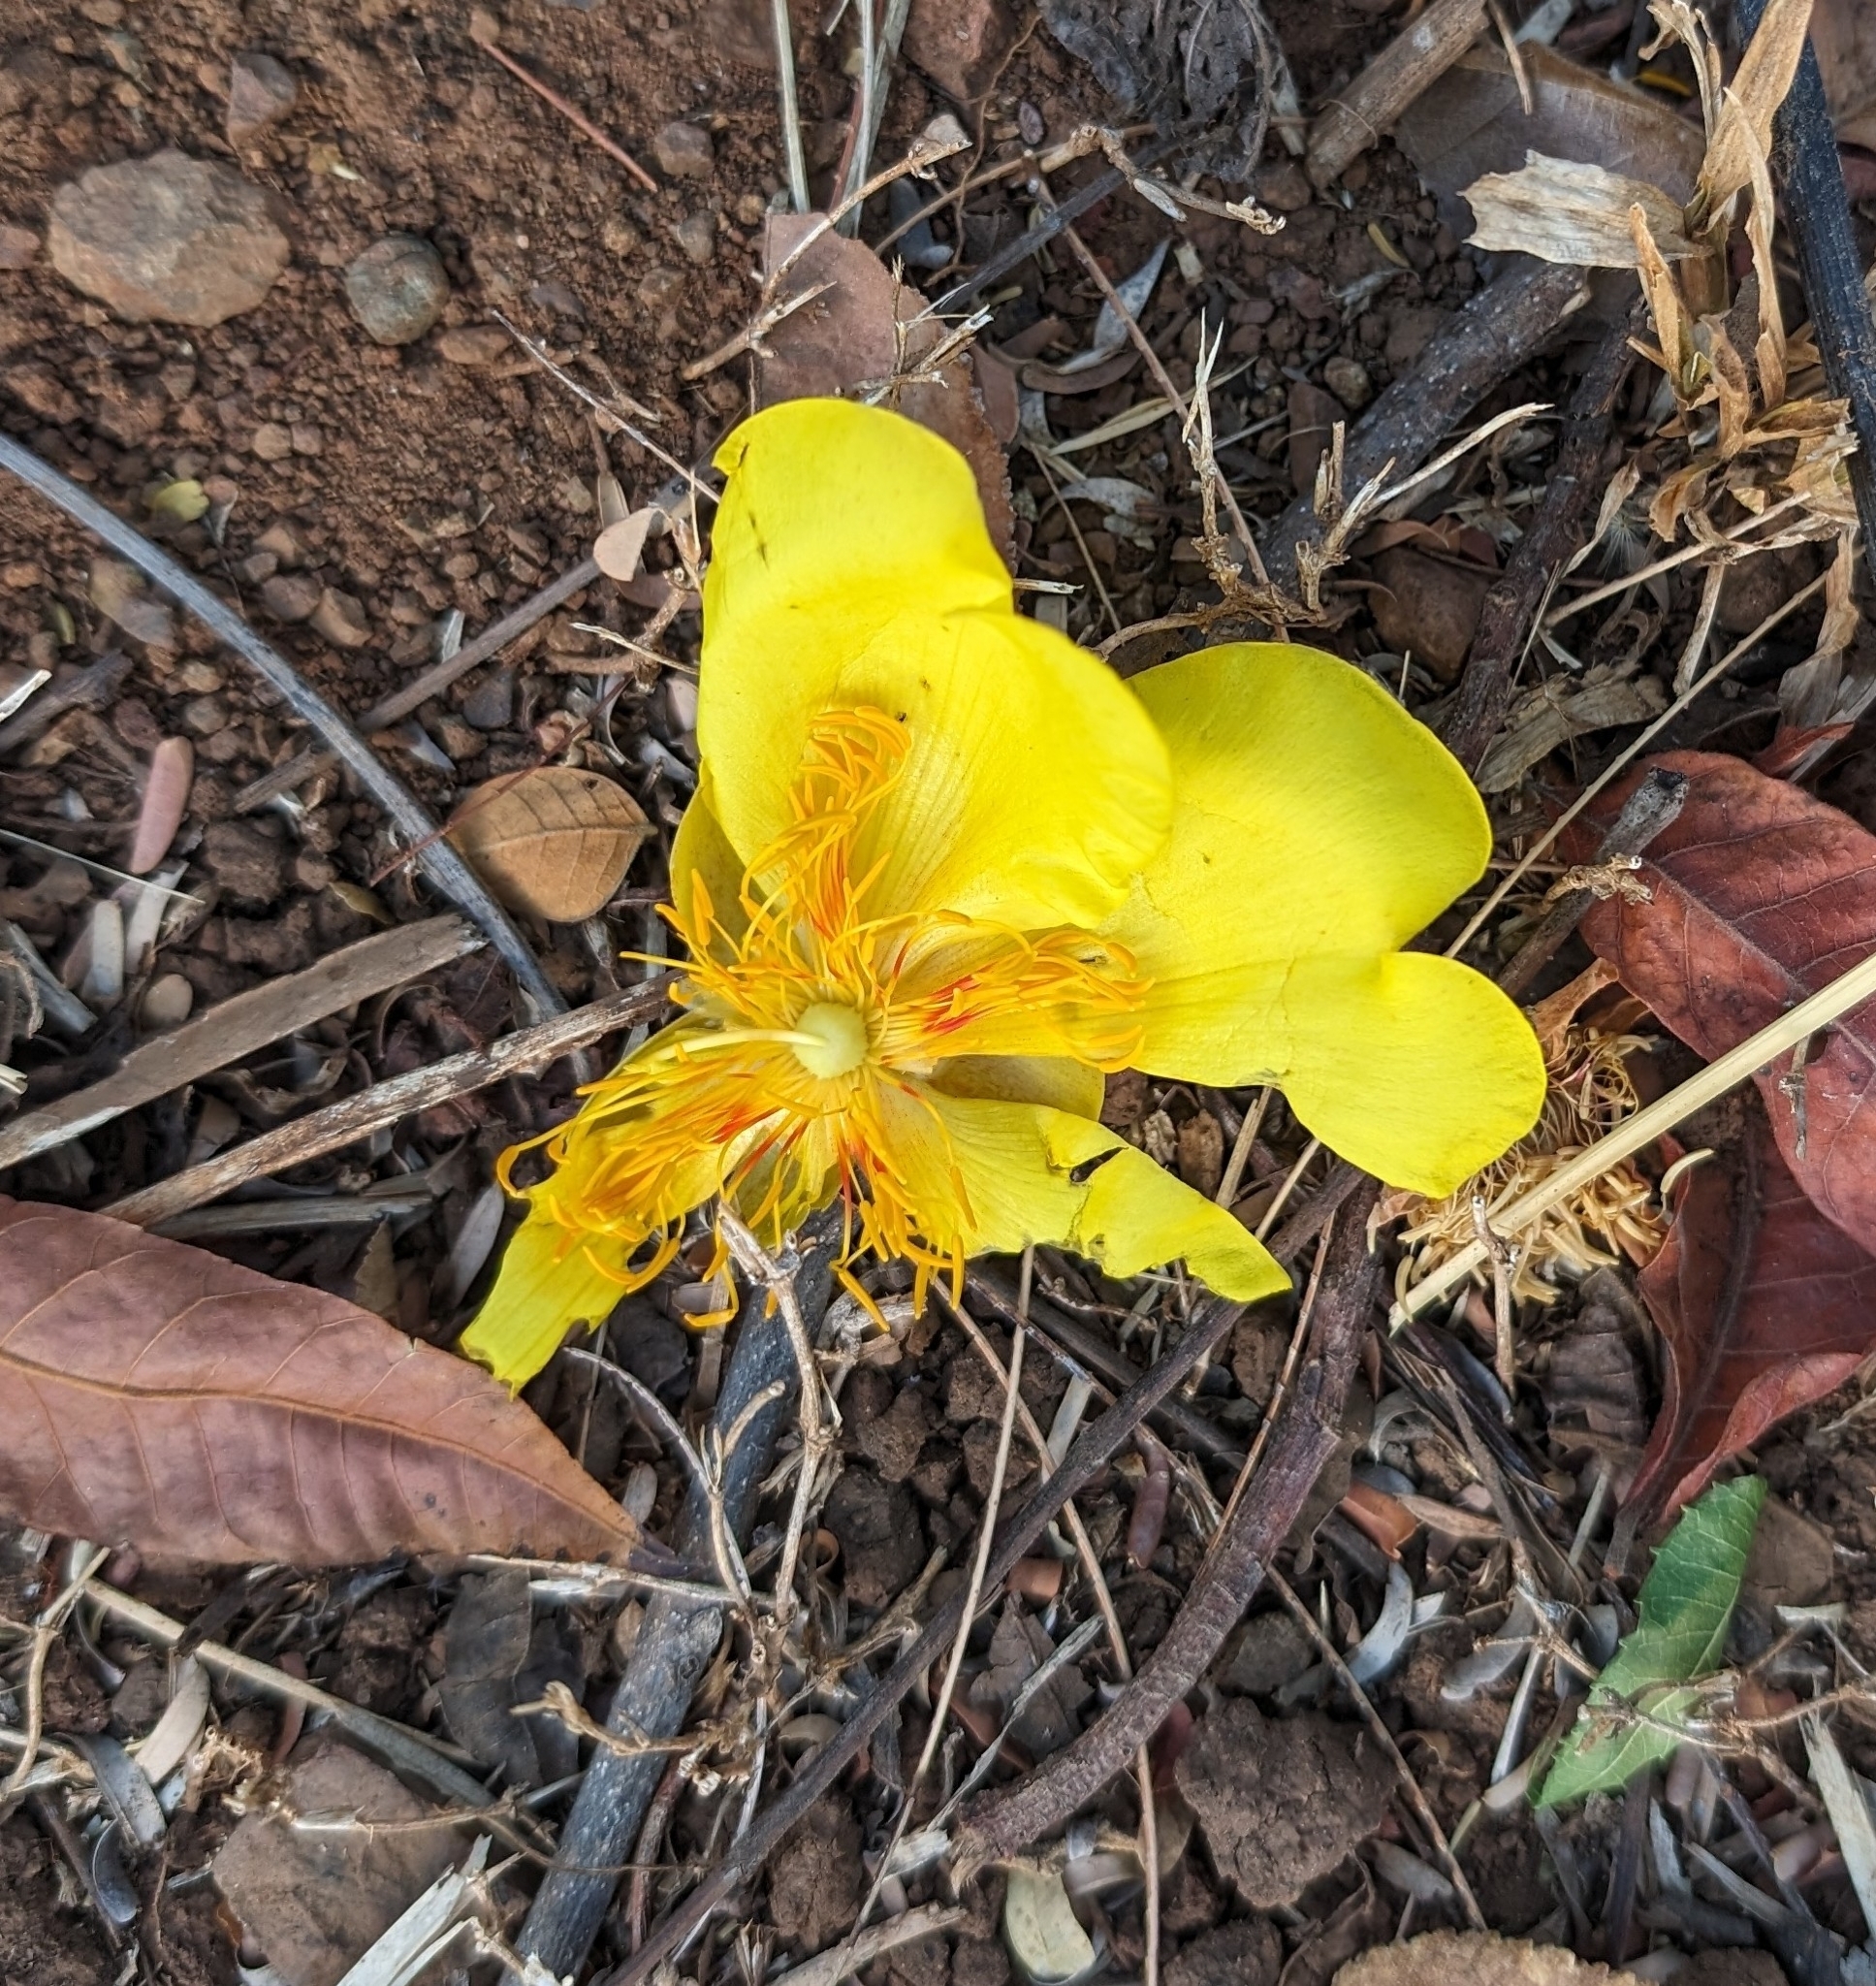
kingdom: Plantae
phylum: Tracheophyta
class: Magnoliopsida
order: Malvales
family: Cochlospermaceae
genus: Cochlospermum
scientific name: Cochlospermum vitifolium
